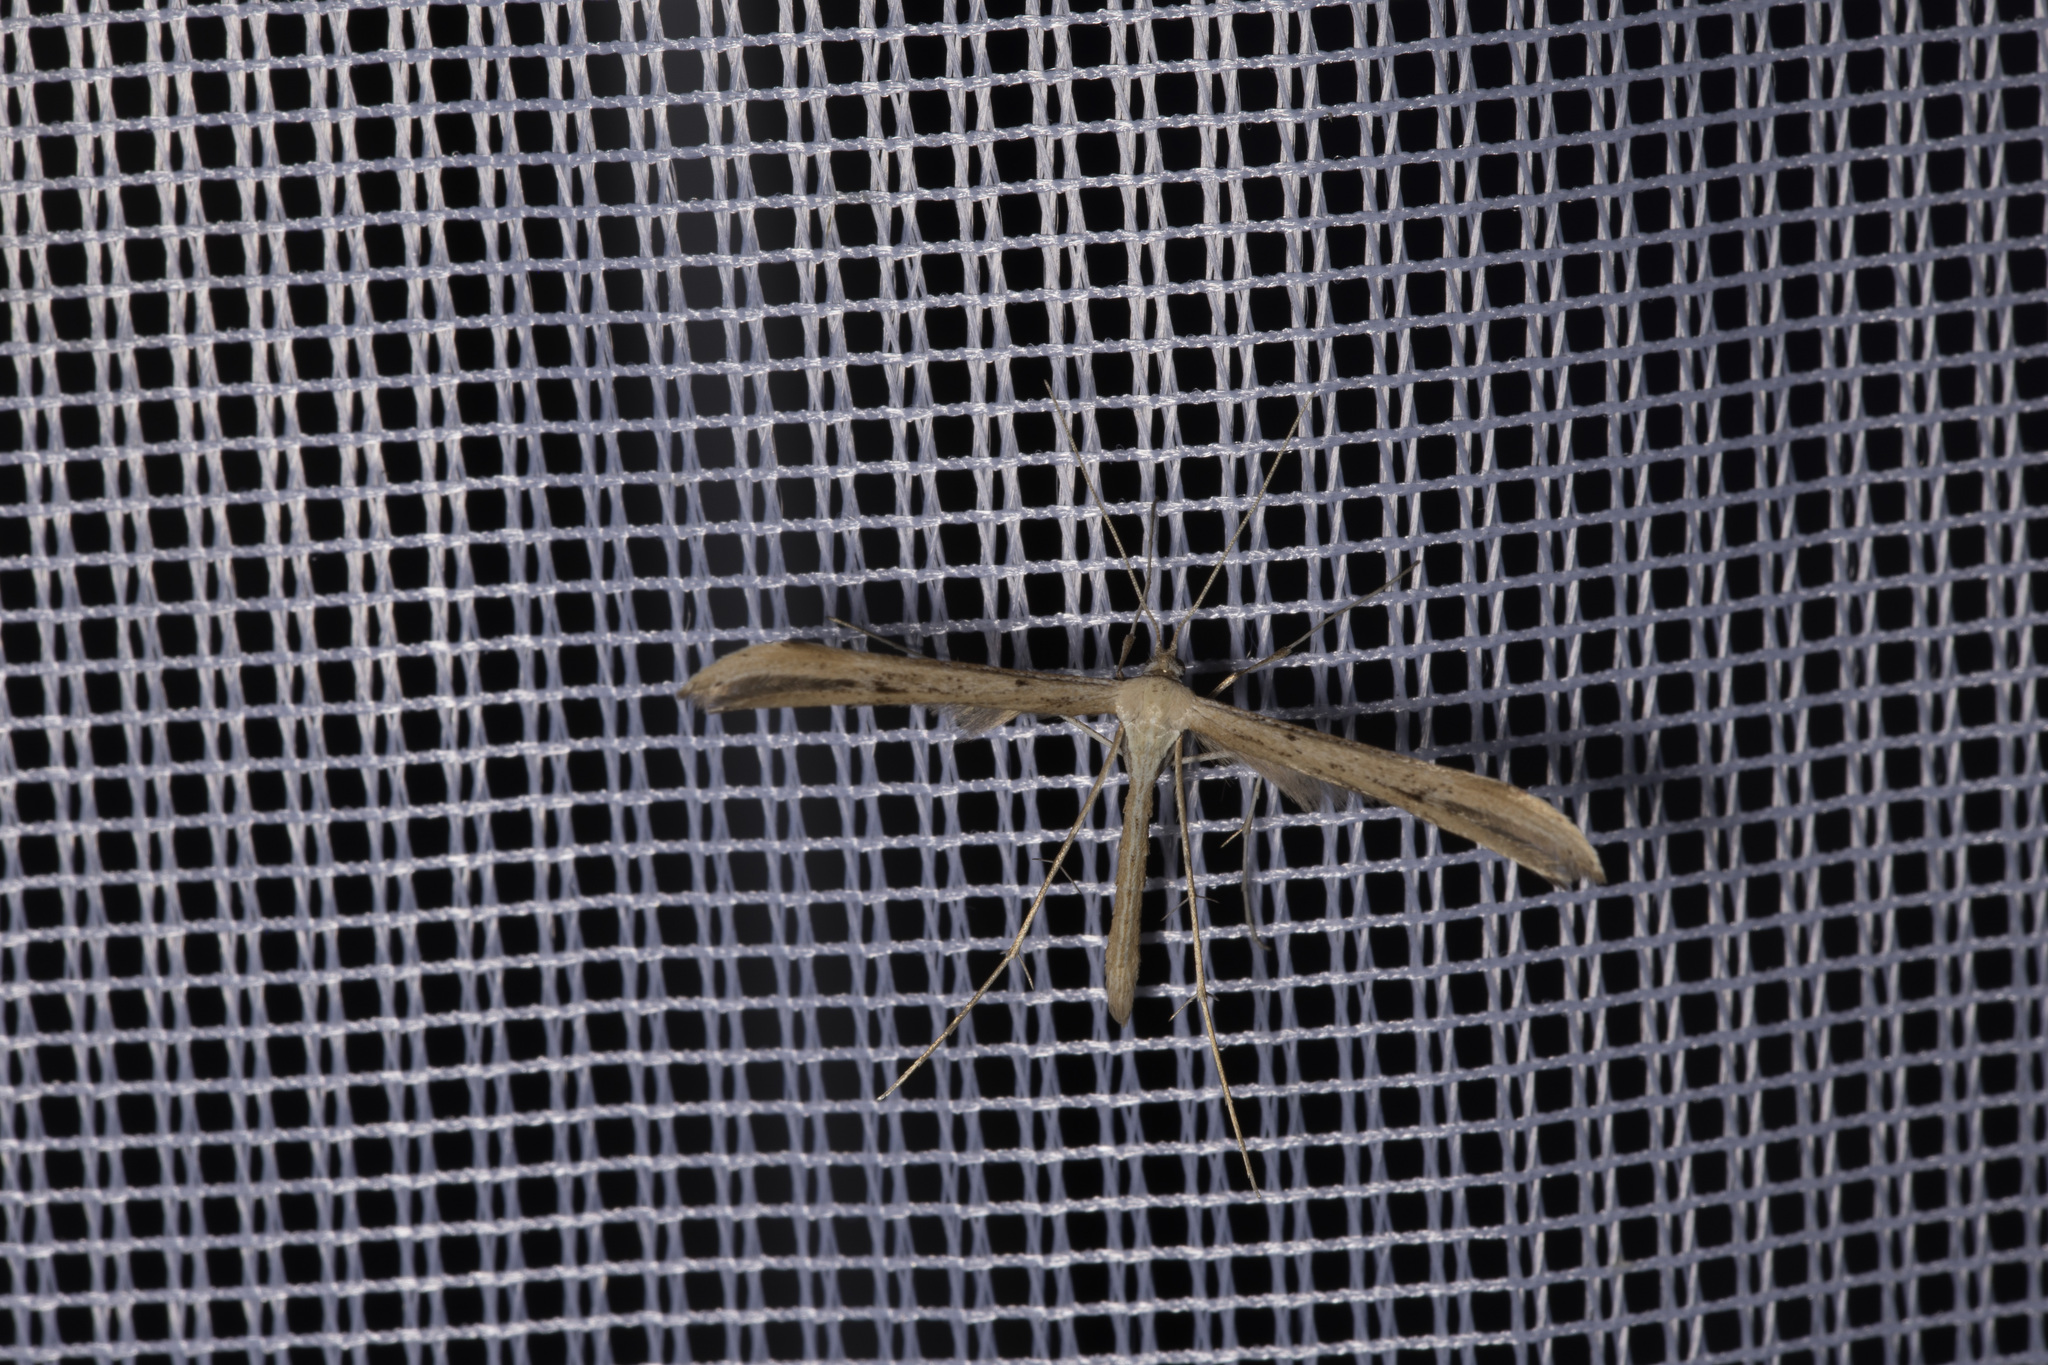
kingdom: Animalia
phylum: Arthropoda
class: Insecta
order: Lepidoptera
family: Pterophoridae
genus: Emmelina
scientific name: Emmelina monodactyla
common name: Common plume
